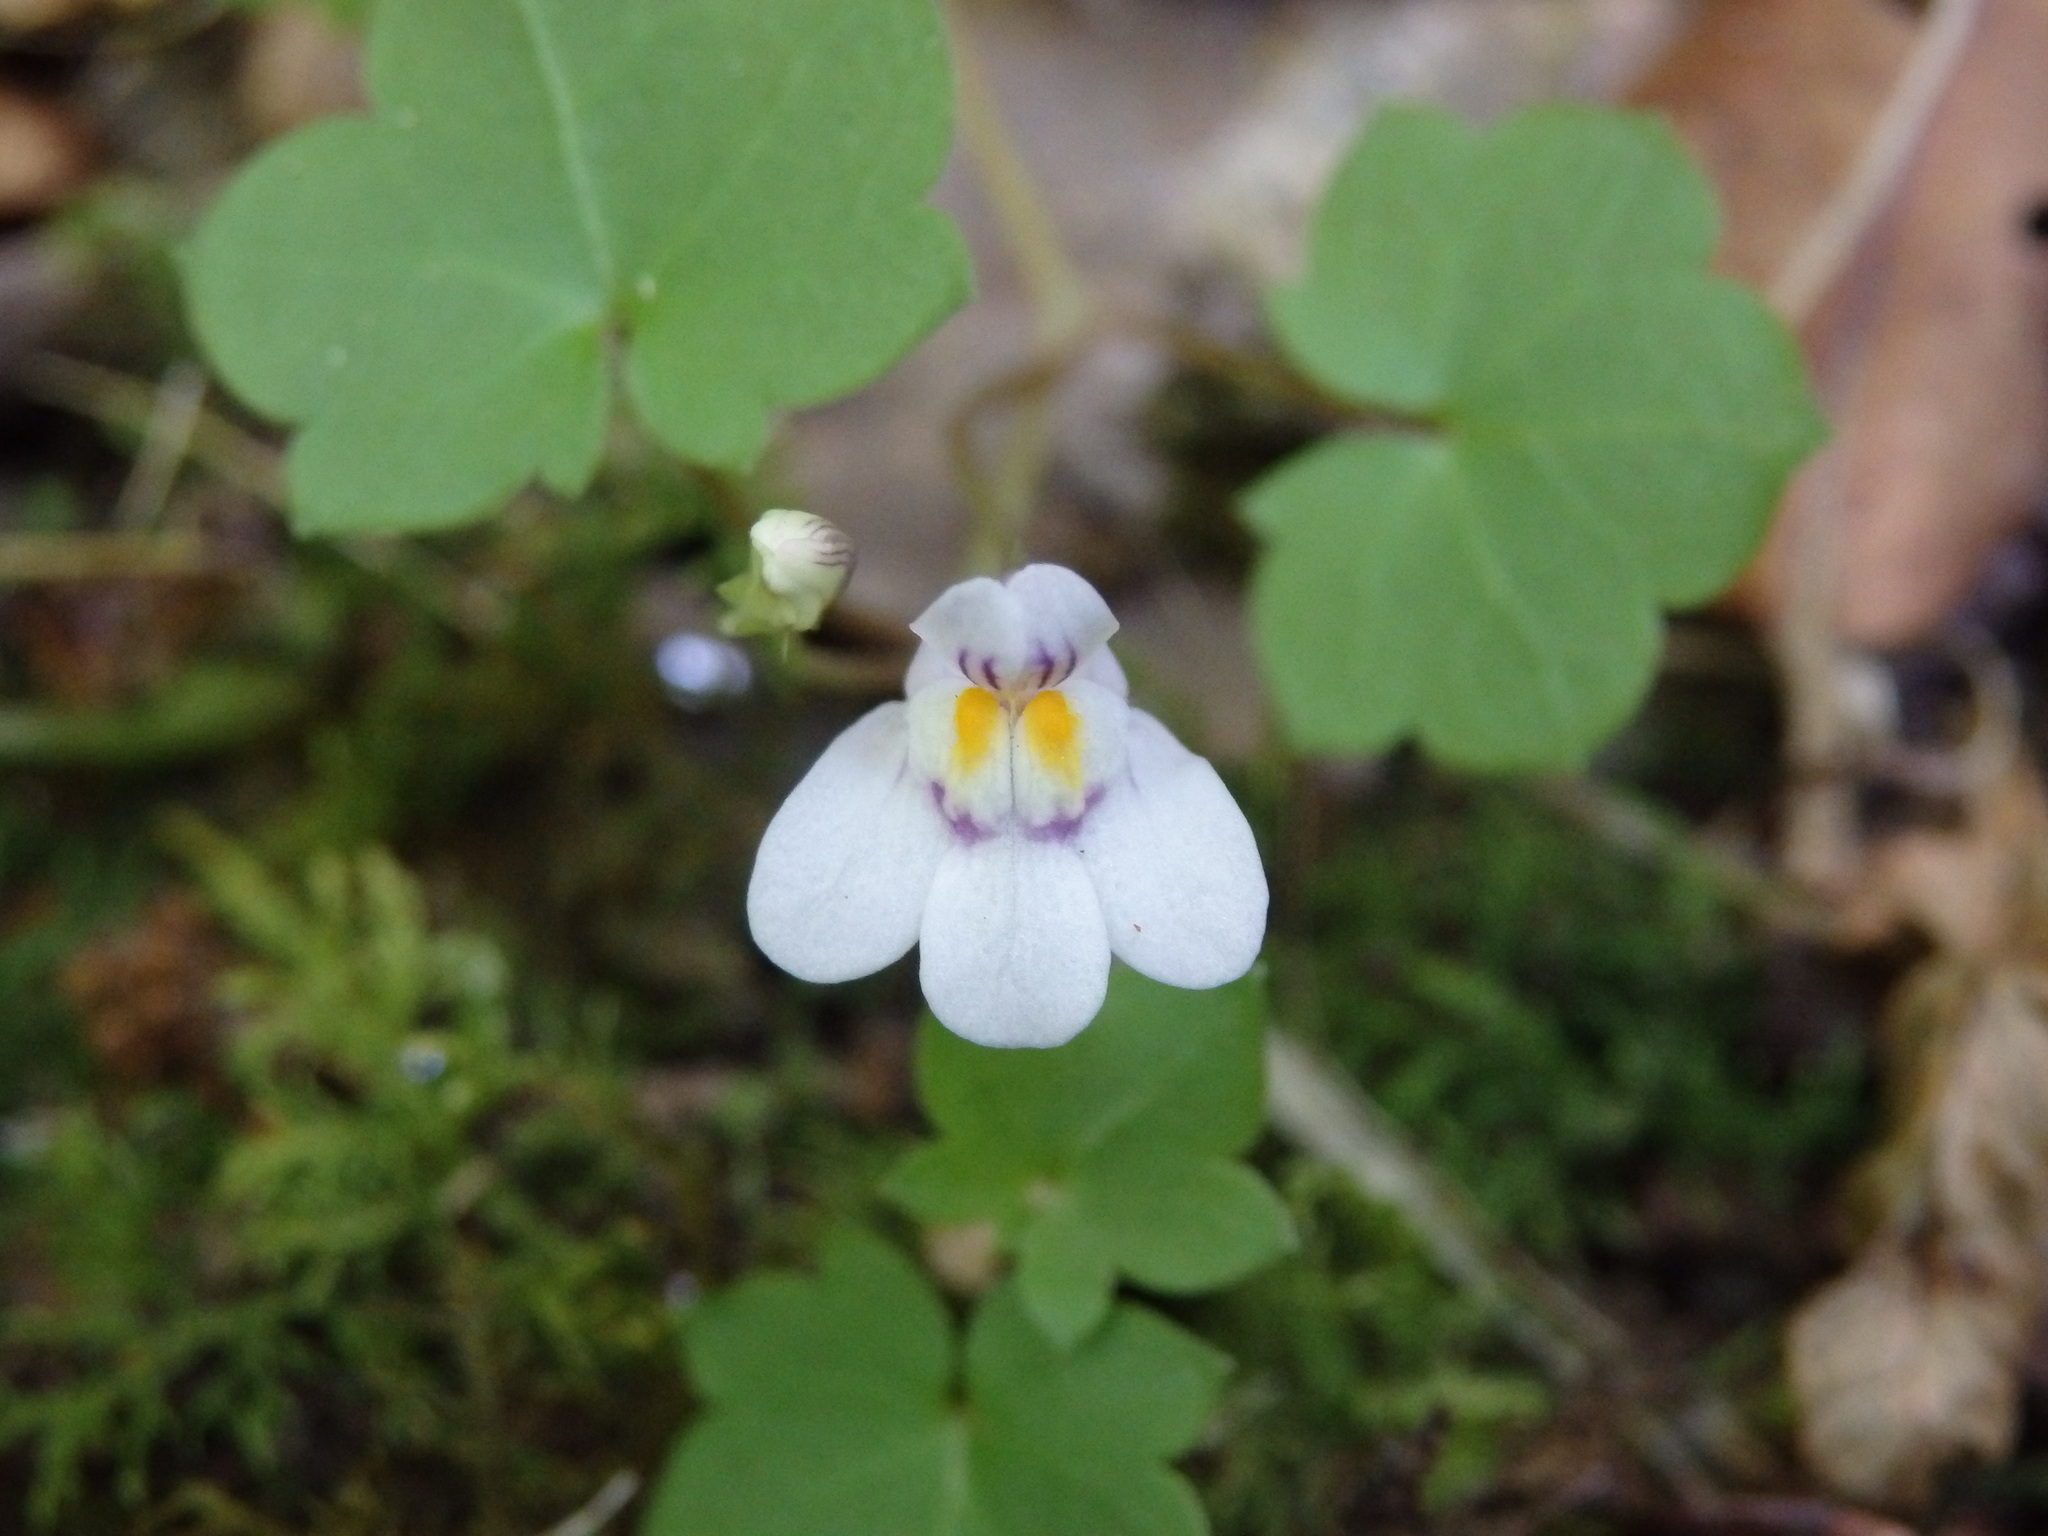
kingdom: Plantae
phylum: Tracheophyta
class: Magnoliopsida
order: Lamiales
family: Plantaginaceae
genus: Cymbalaria
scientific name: Cymbalaria muralis
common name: Ivy-leaved toadflax
